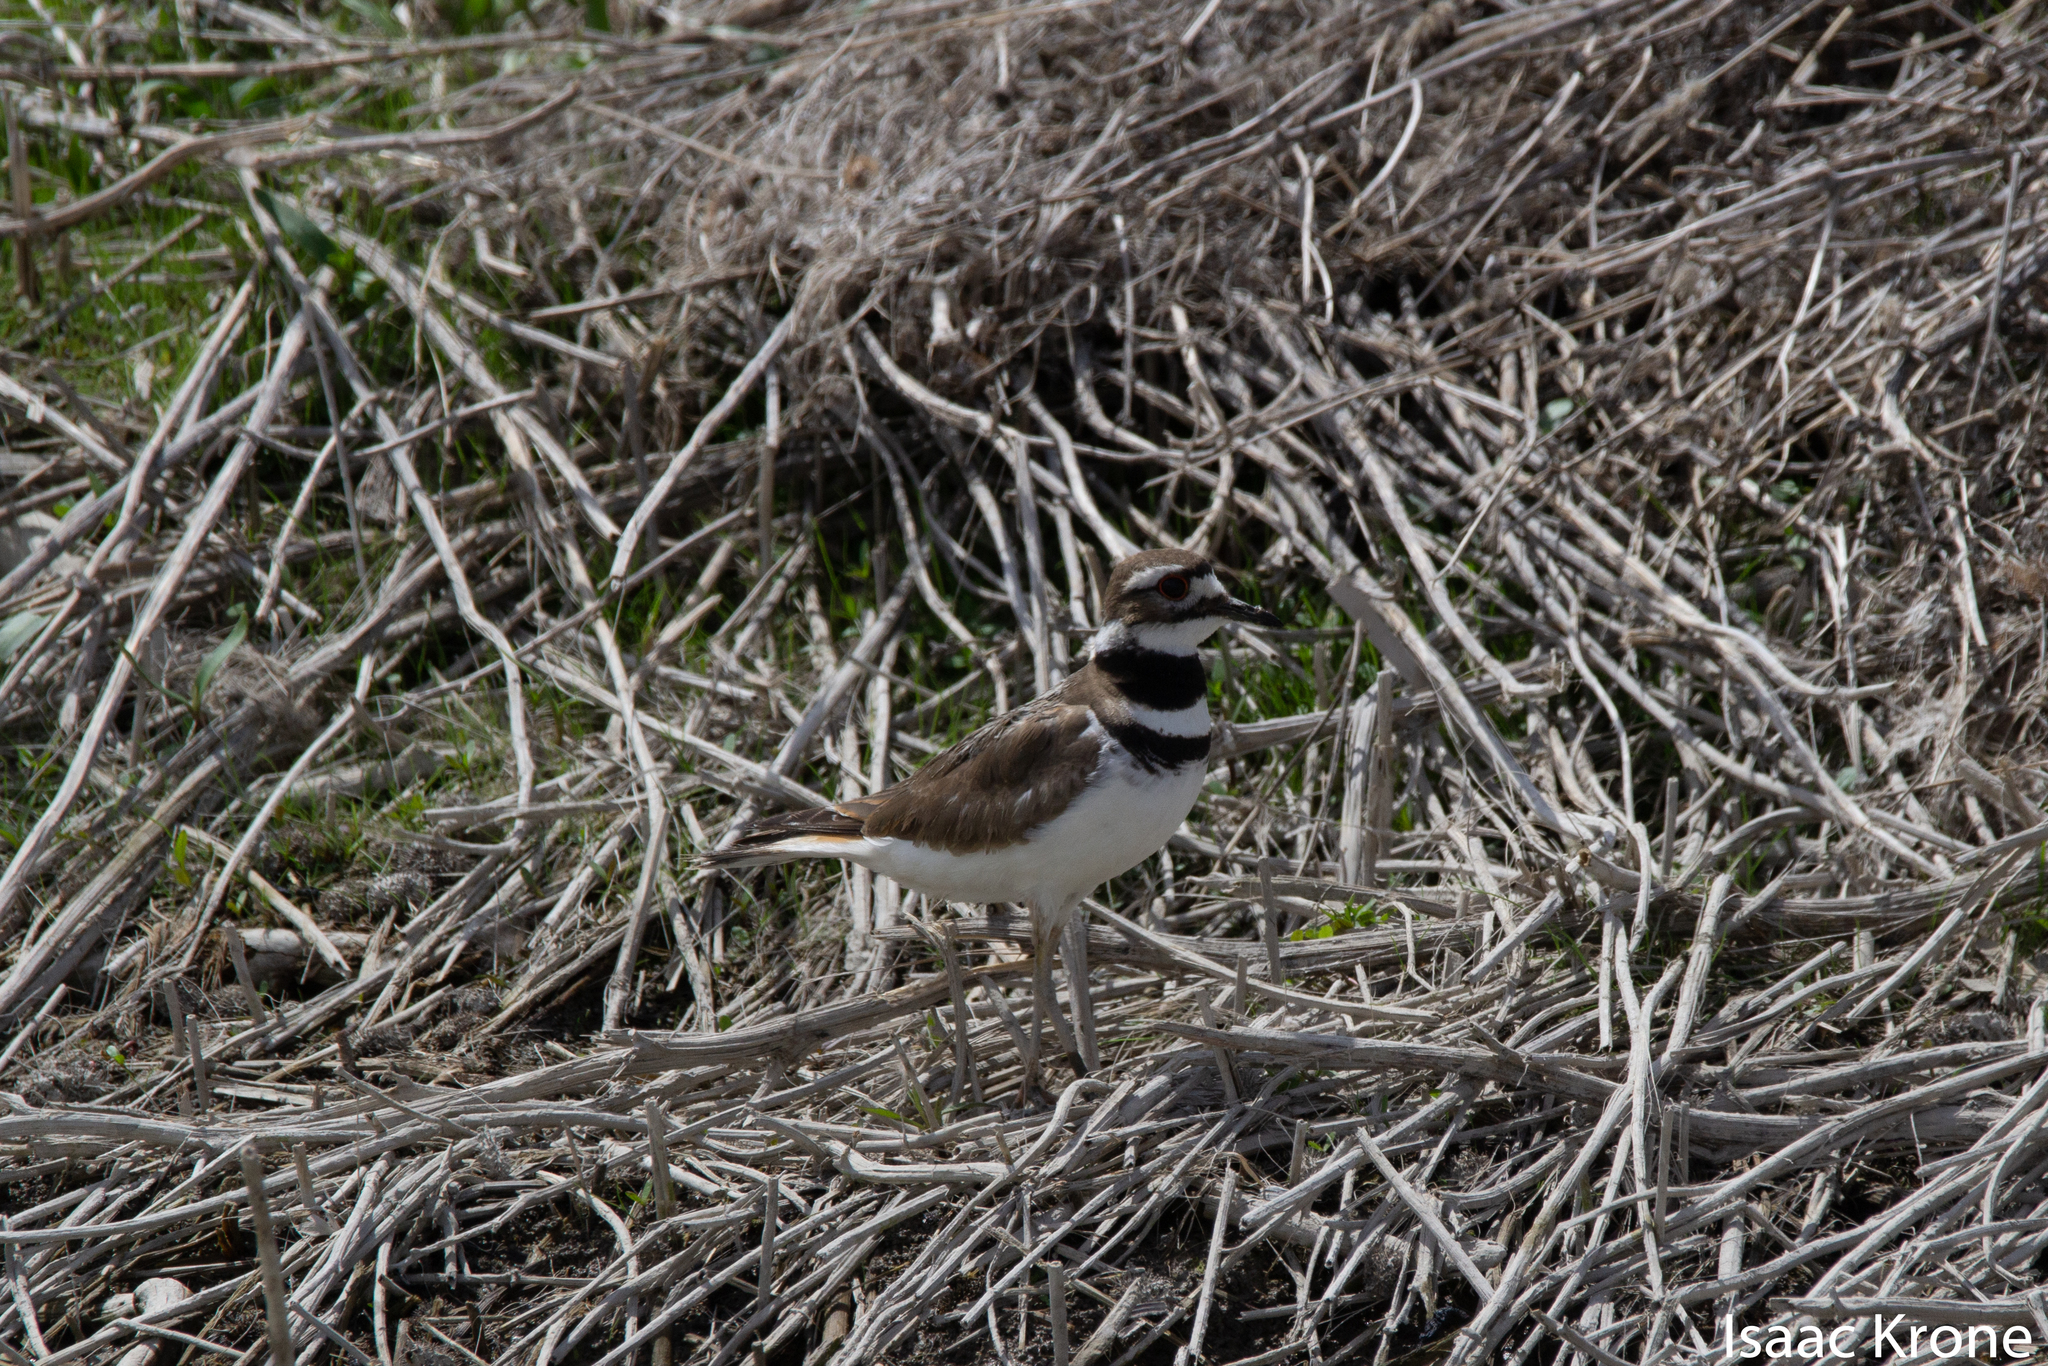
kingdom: Animalia
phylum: Chordata
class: Aves
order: Charadriiformes
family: Charadriidae
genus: Charadrius
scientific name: Charadrius vociferus
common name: Killdeer
